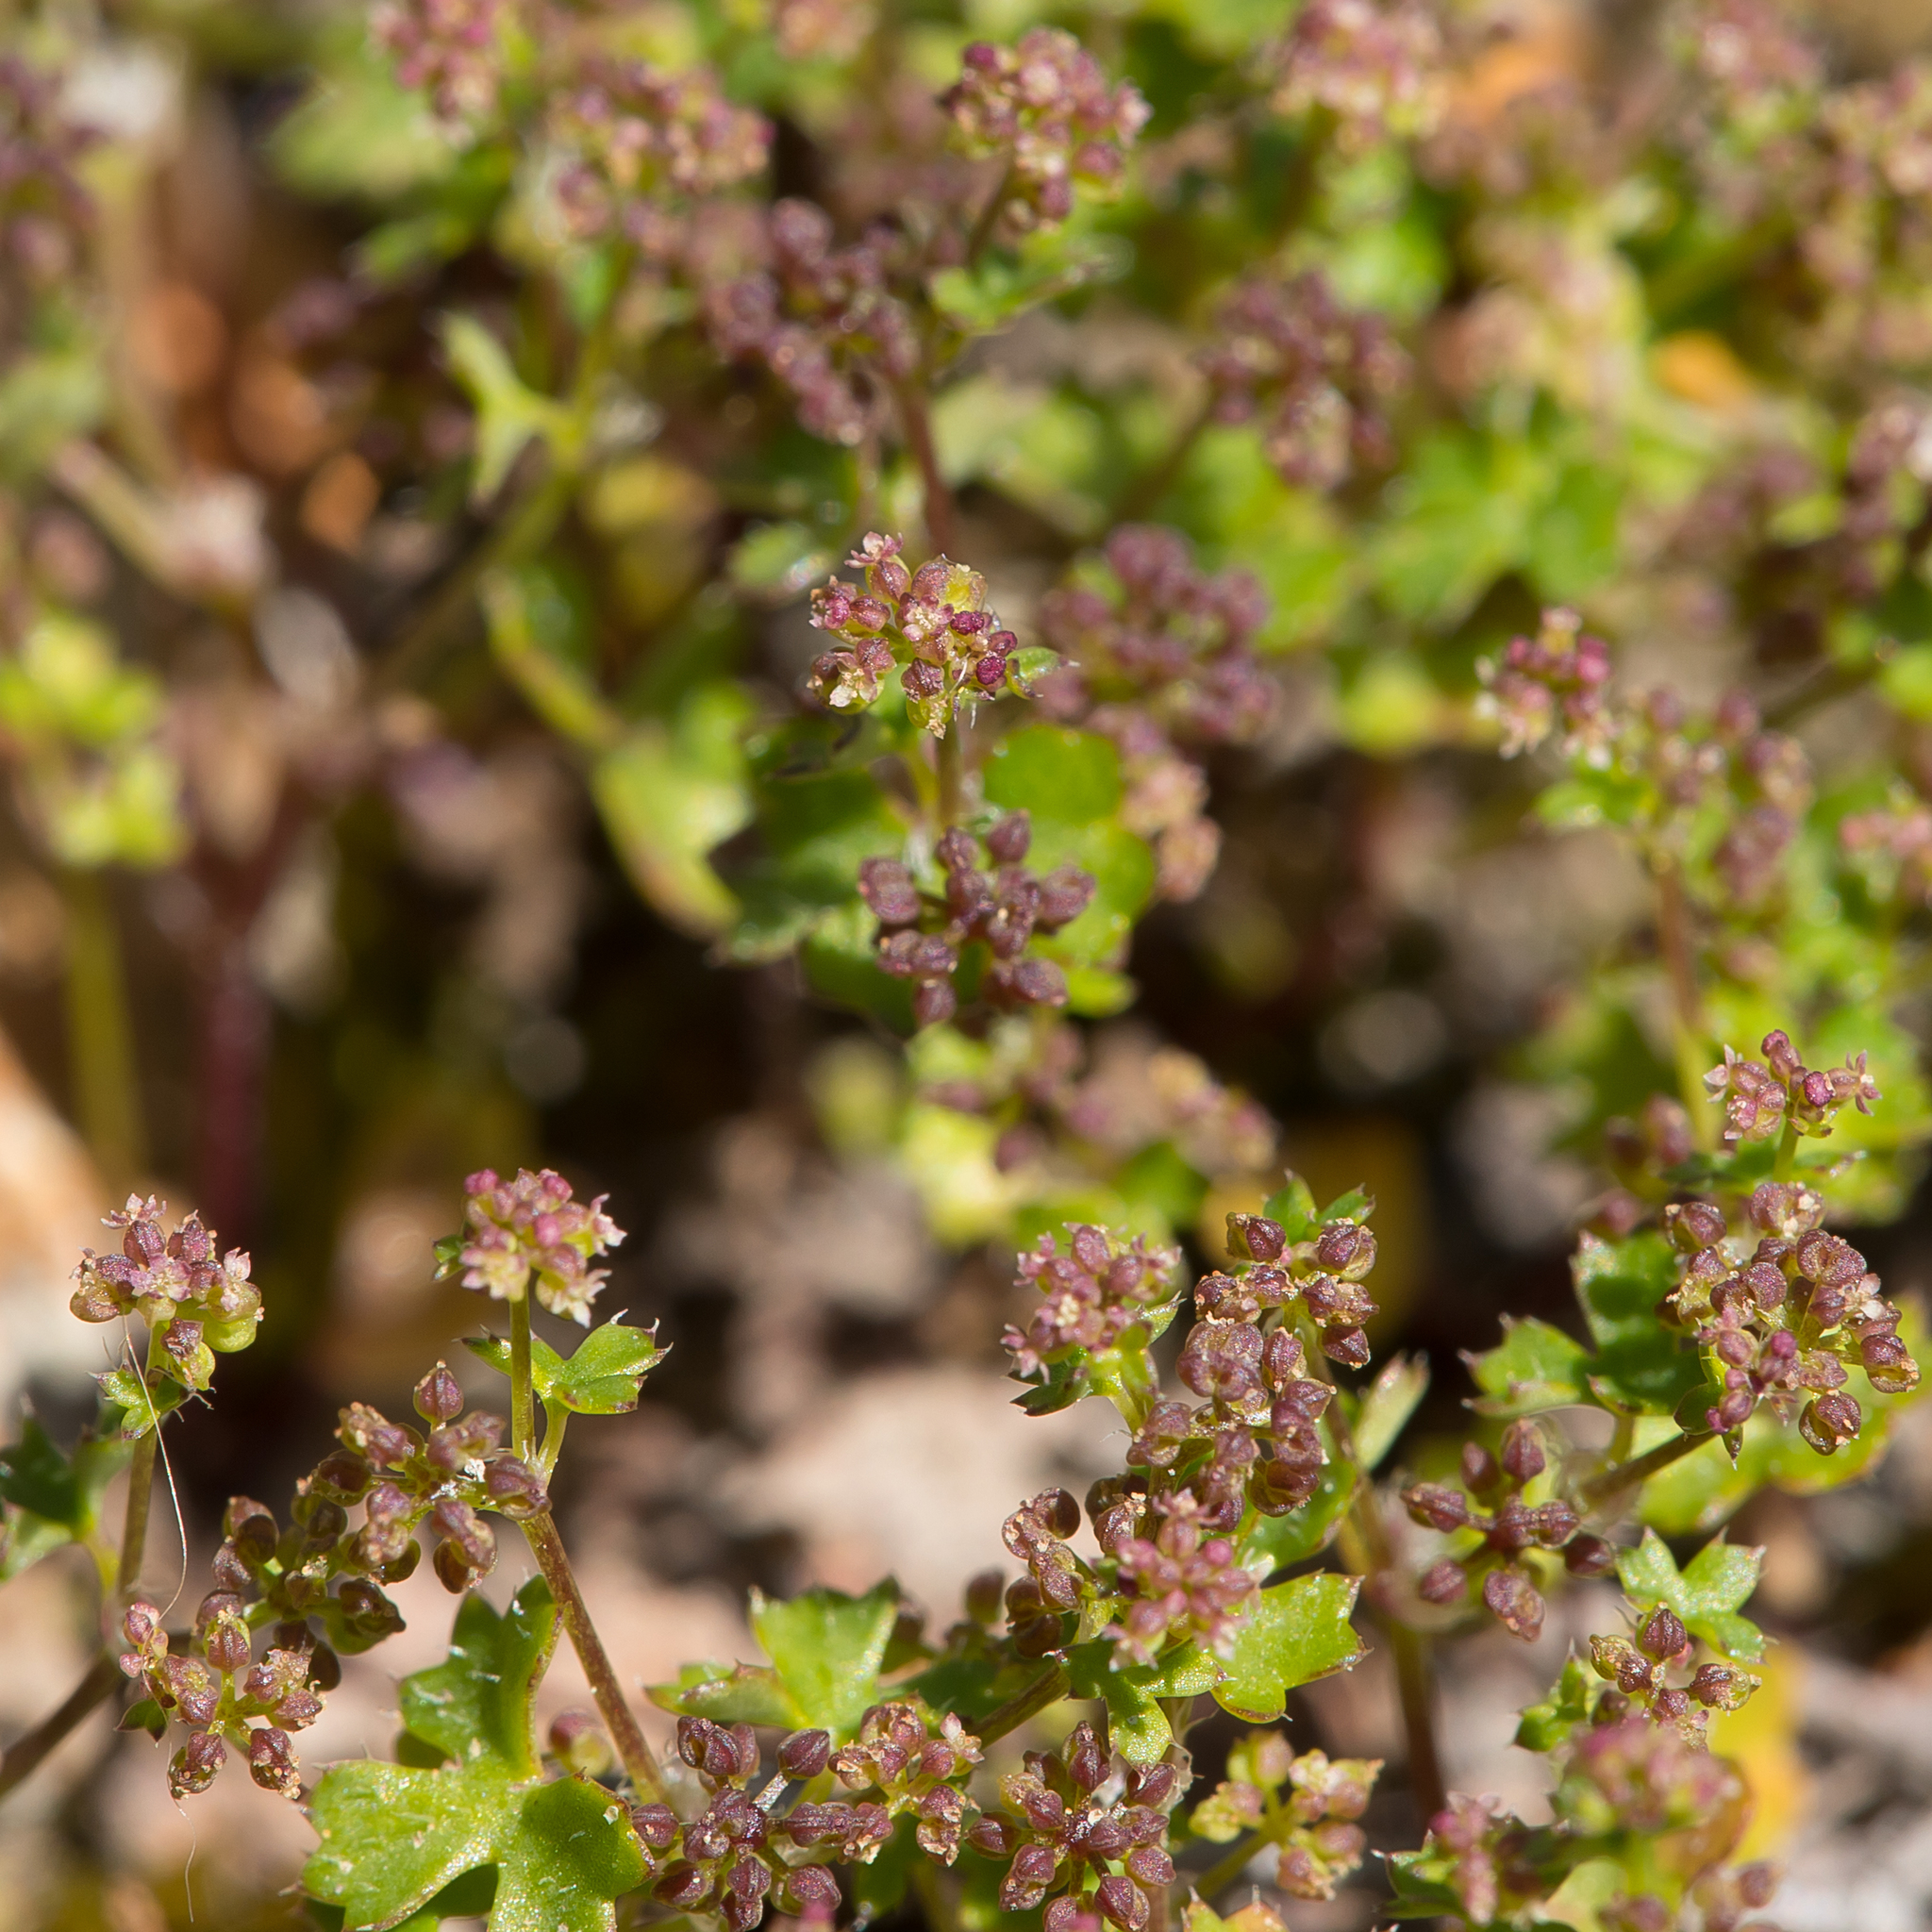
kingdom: Plantae
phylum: Tracheophyta
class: Magnoliopsida
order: Apiales
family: Araliaceae
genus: Hydrocotyle
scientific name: Hydrocotyle callicarpa
